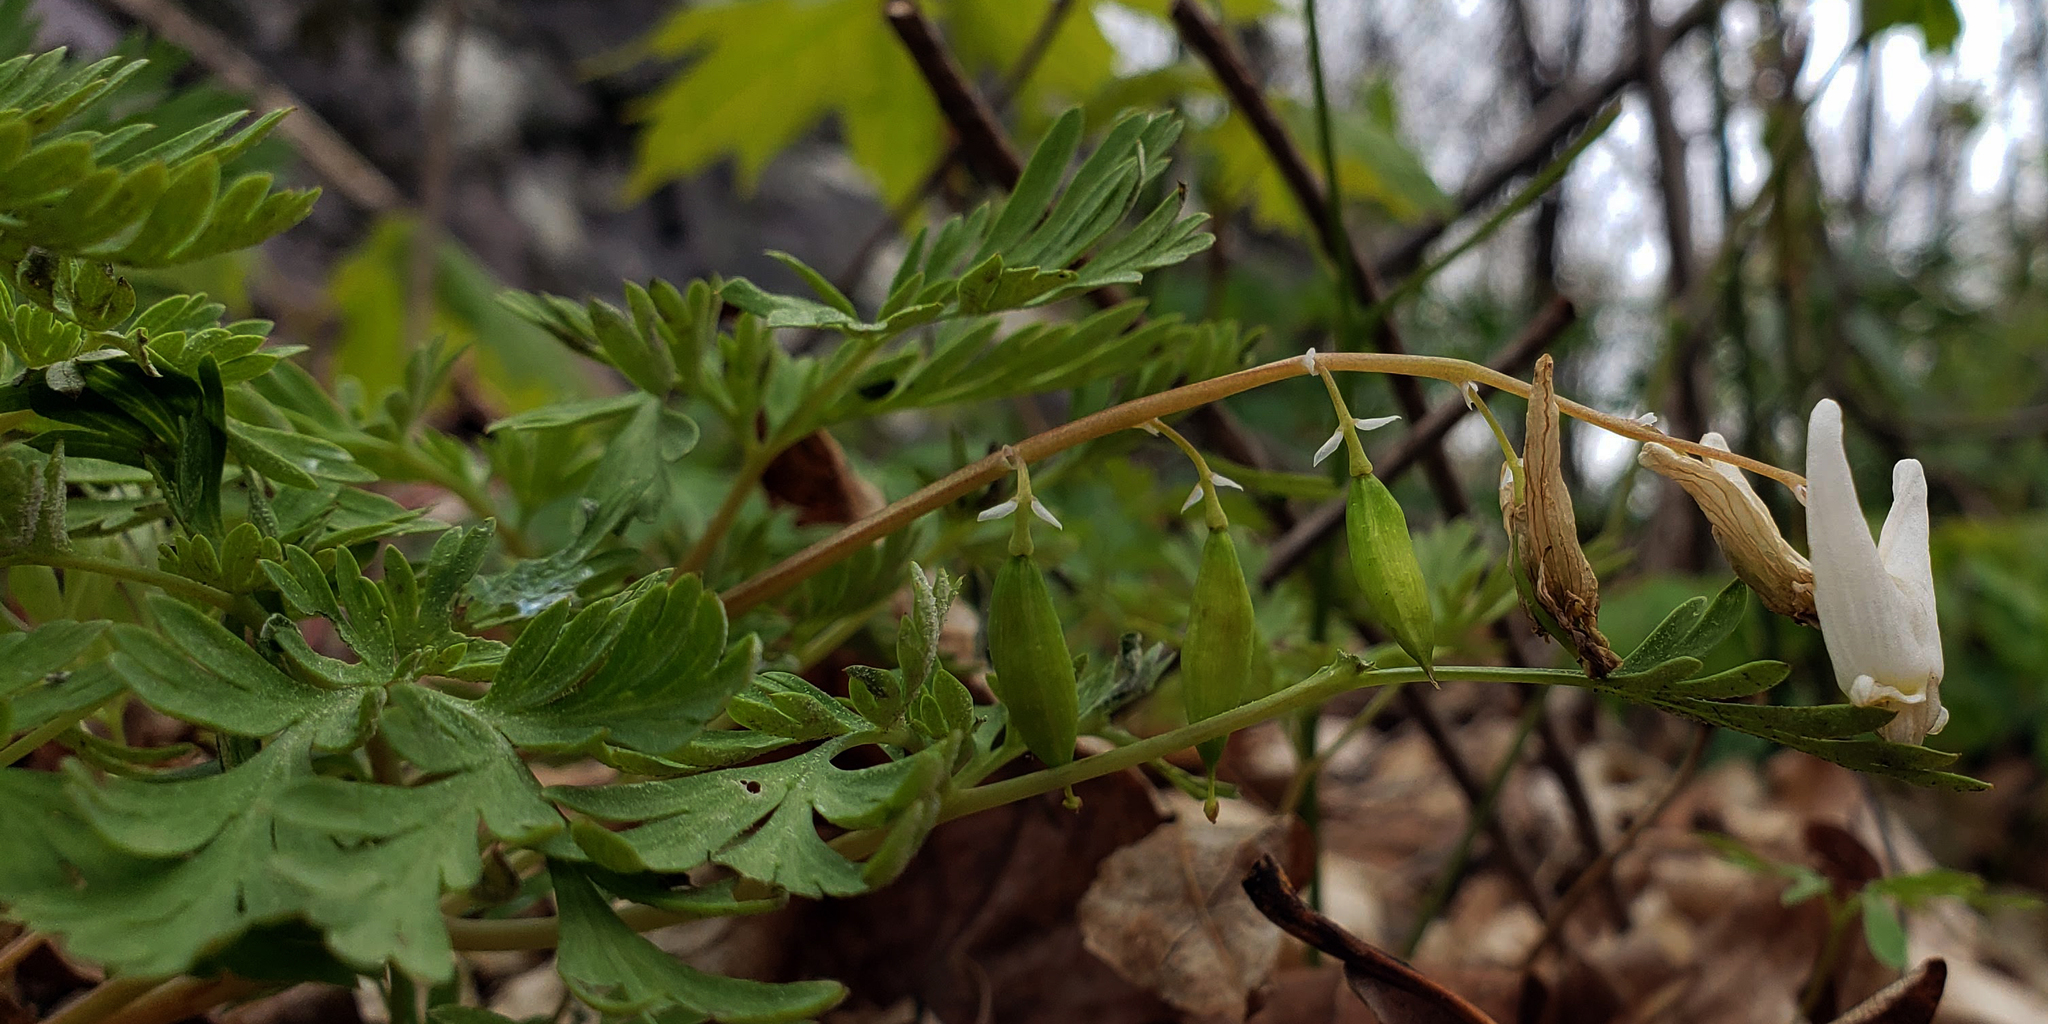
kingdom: Plantae
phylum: Tracheophyta
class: Magnoliopsida
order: Ranunculales
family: Papaveraceae
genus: Dicentra
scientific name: Dicentra cucullaria
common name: Dutchman's breeches
